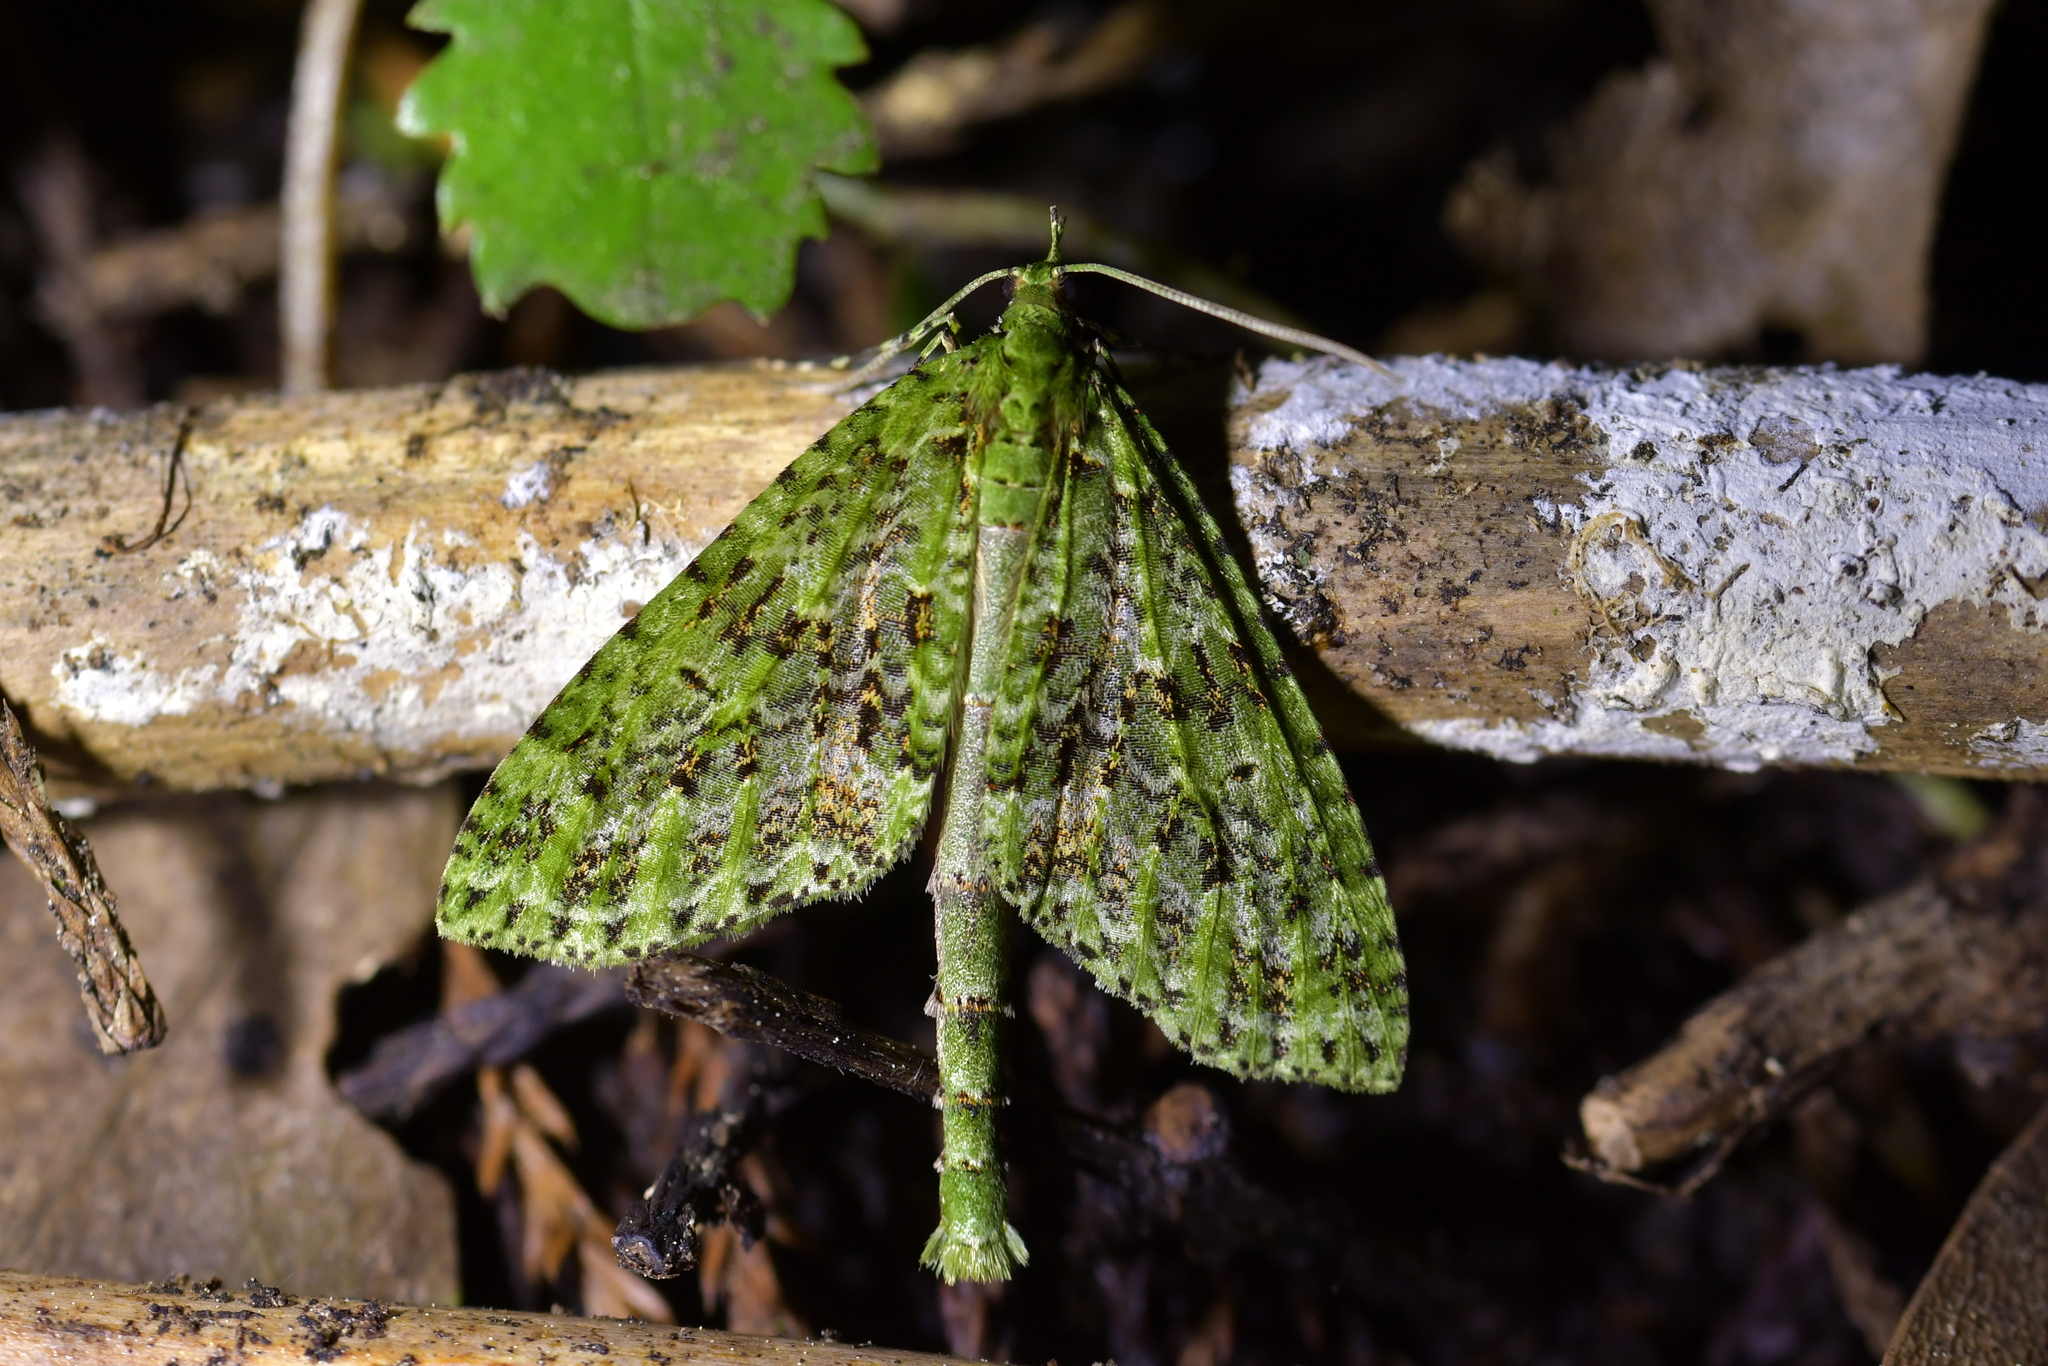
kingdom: Animalia
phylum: Arthropoda
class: Insecta
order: Lepidoptera
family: Geometridae
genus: Tatosoma
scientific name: Tatosoma tipulata
